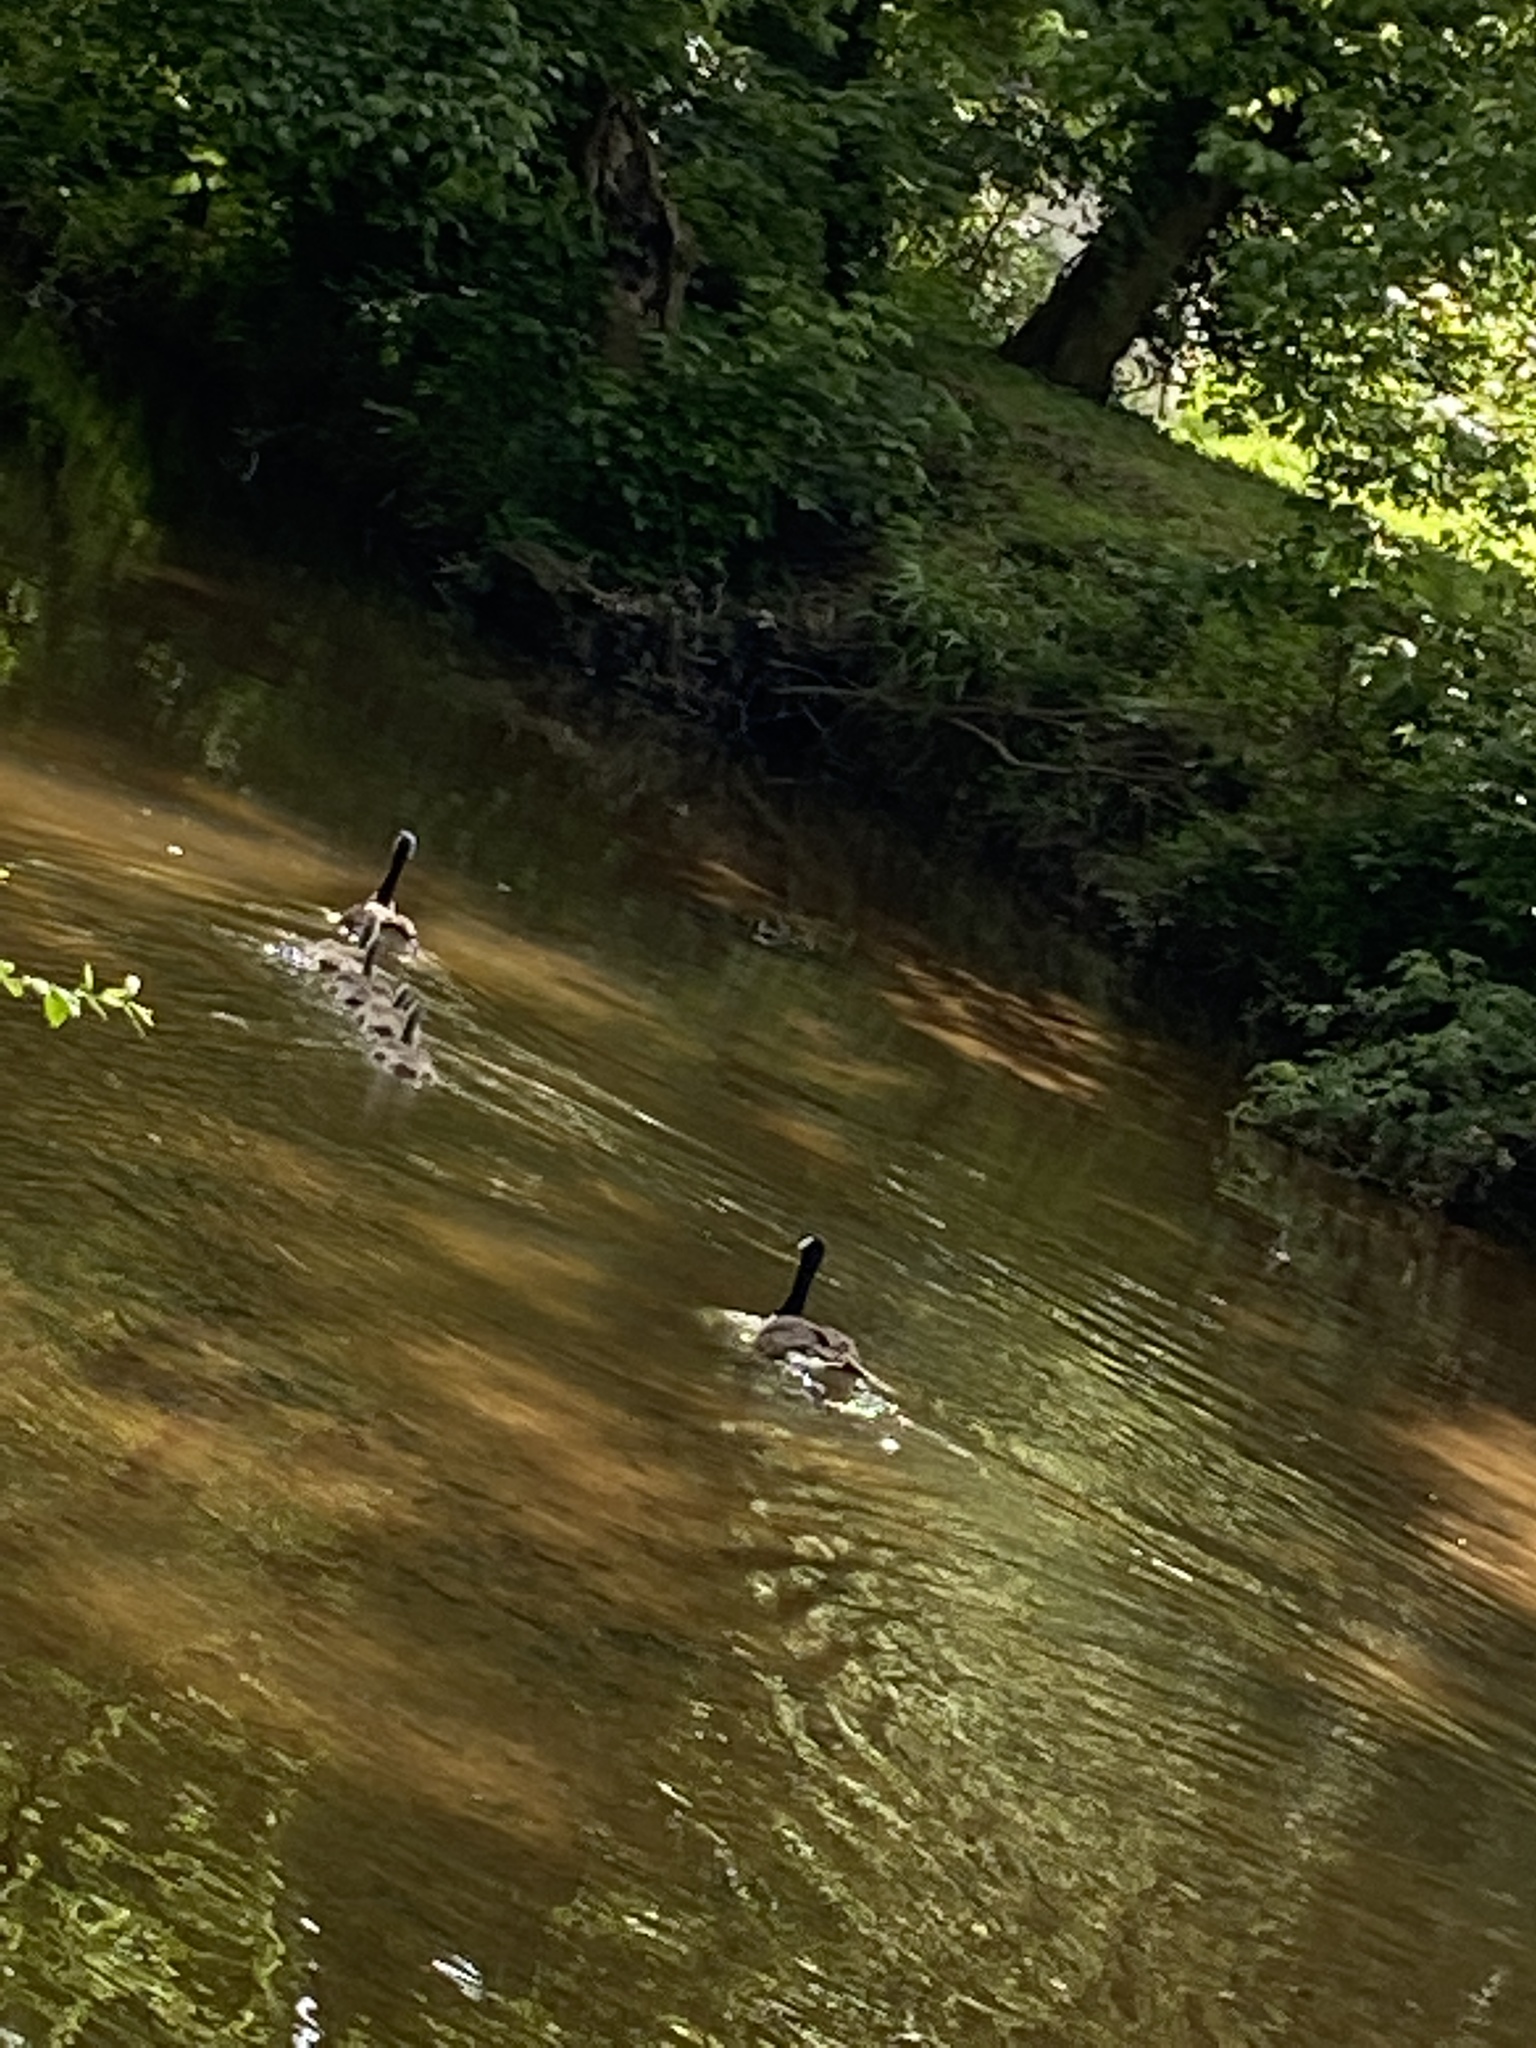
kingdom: Animalia
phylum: Chordata
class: Aves
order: Anseriformes
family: Anatidae
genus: Branta
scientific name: Branta canadensis
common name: Canada goose
